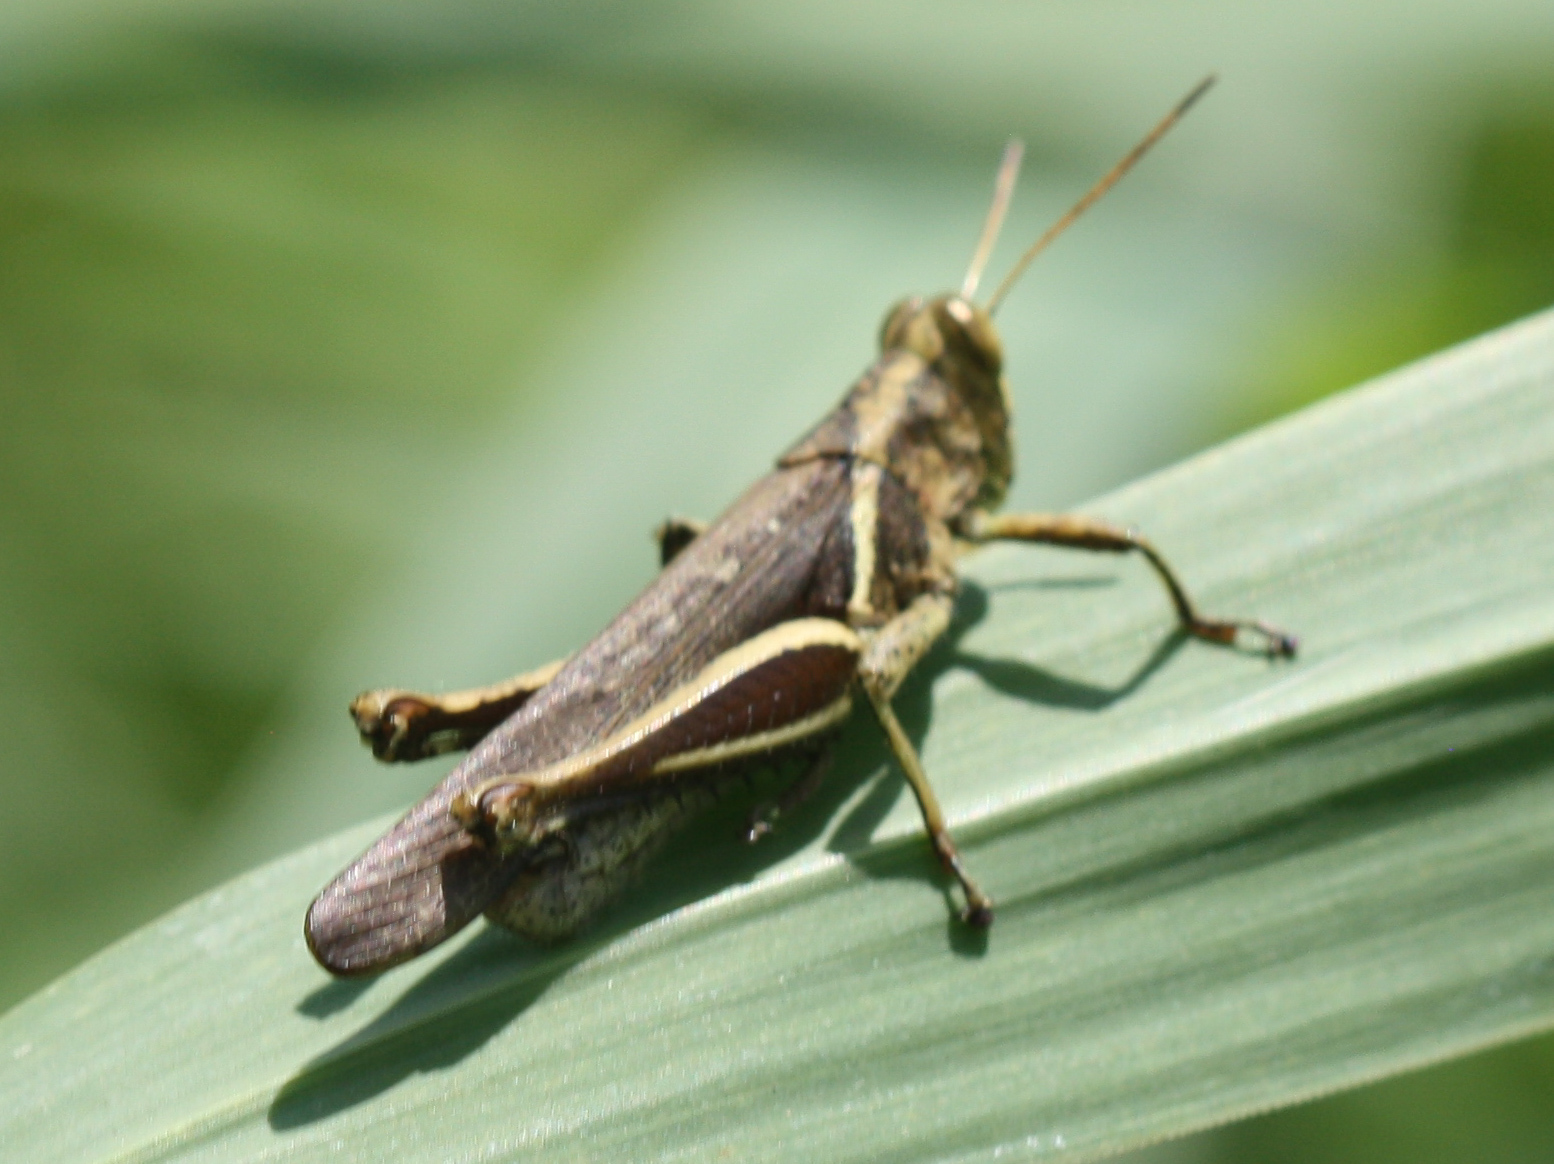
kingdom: Animalia
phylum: Arthropoda
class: Insecta
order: Orthoptera
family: Acrididae
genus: Abracris
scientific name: Abracris flavolineata
